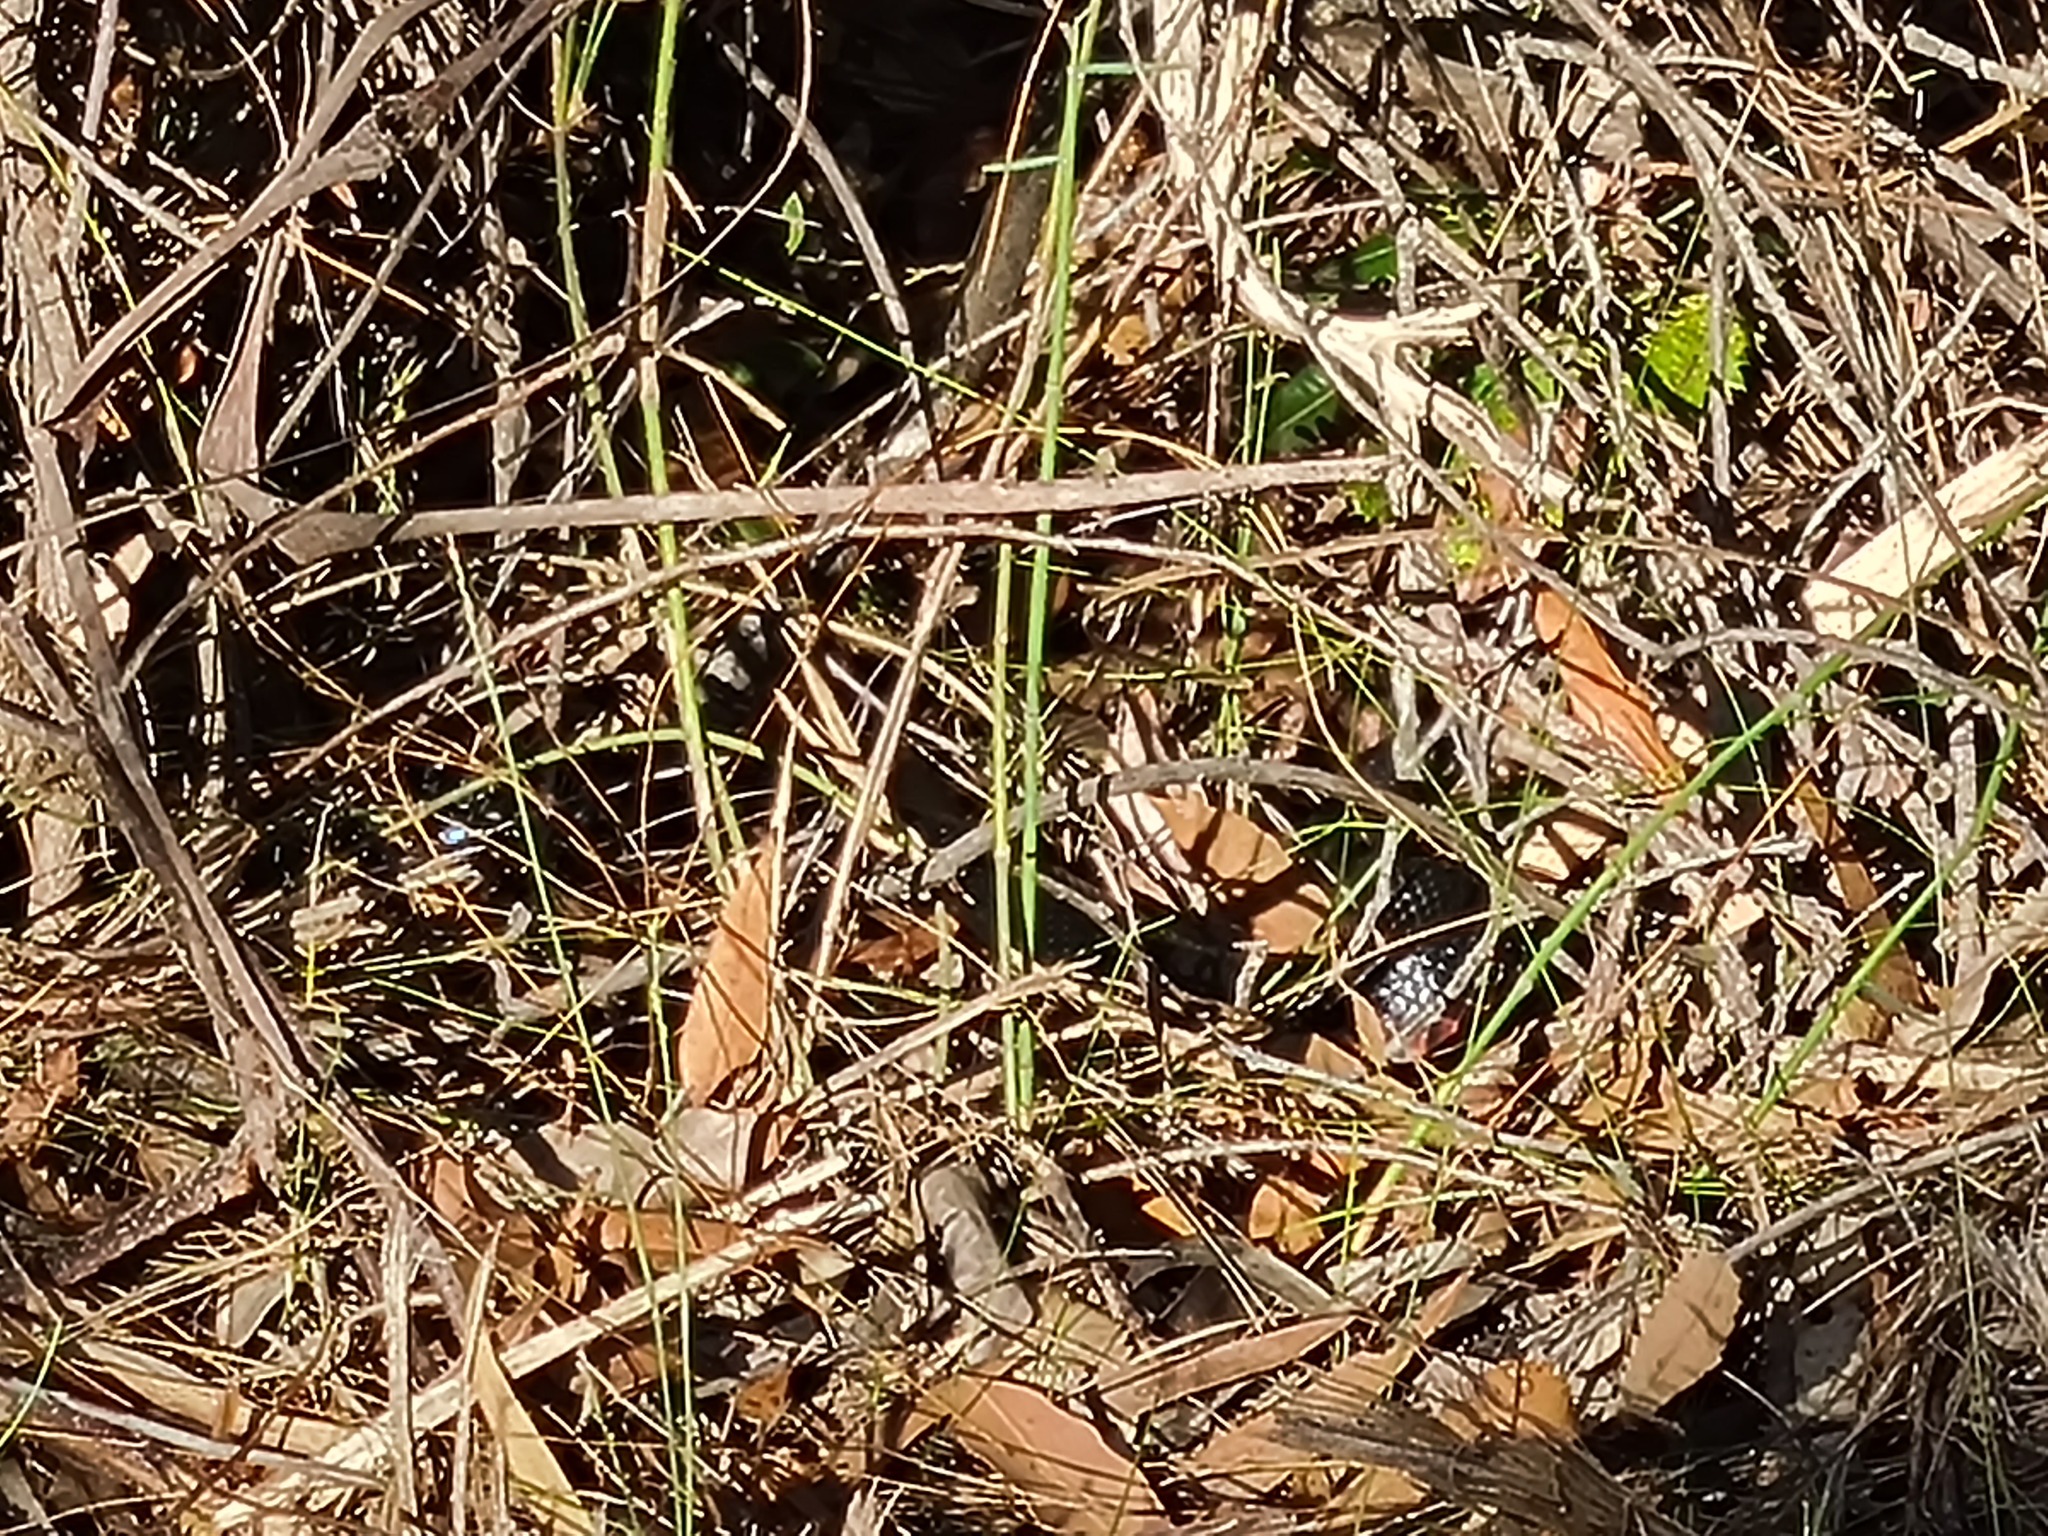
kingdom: Animalia
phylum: Chordata
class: Squamata
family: Elapidae
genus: Pseudechis
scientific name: Pseudechis porphyriacus
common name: Australian black snake
